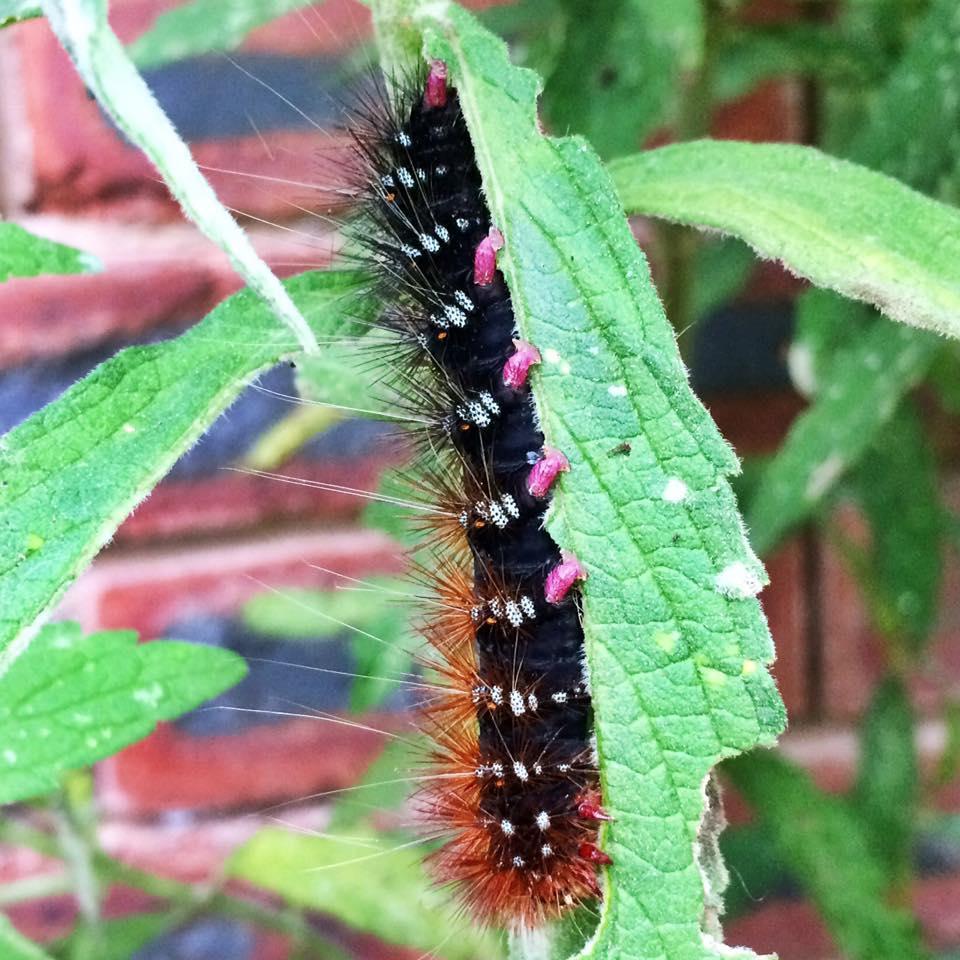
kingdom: Animalia
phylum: Arthropoda
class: Insecta
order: Lepidoptera
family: Erebidae
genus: Rhodogastria
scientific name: Rhodogastria similis
